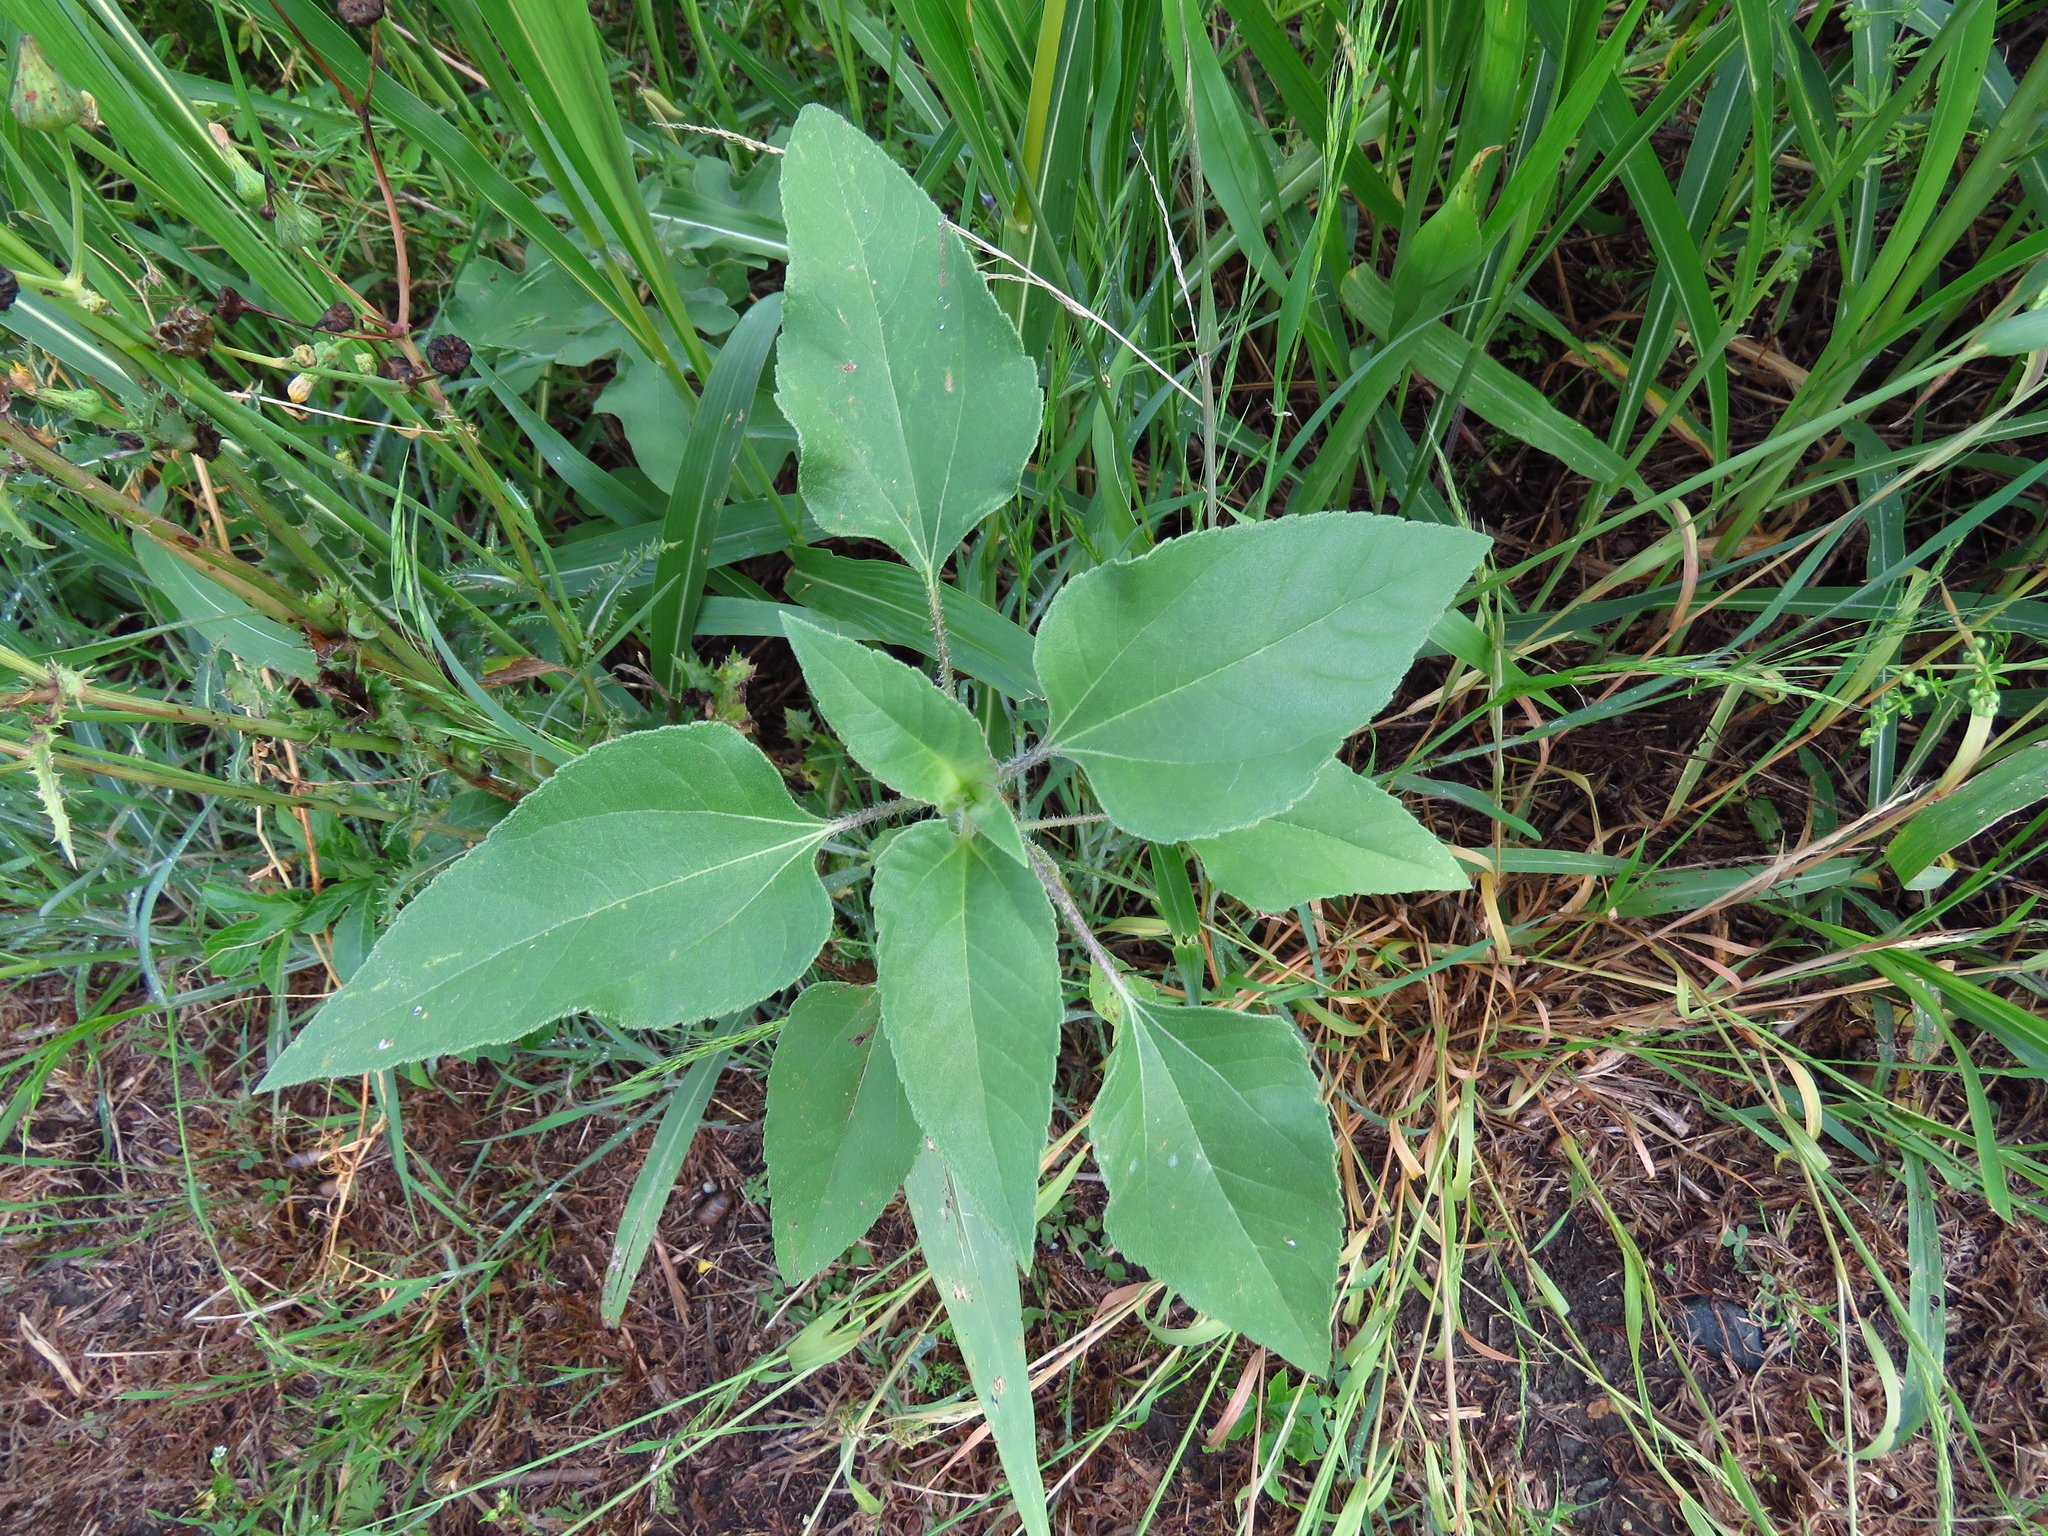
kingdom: Plantae
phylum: Tracheophyta
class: Magnoliopsida
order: Asterales
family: Asteraceae
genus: Helianthus
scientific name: Helianthus annuus
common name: Sunflower
